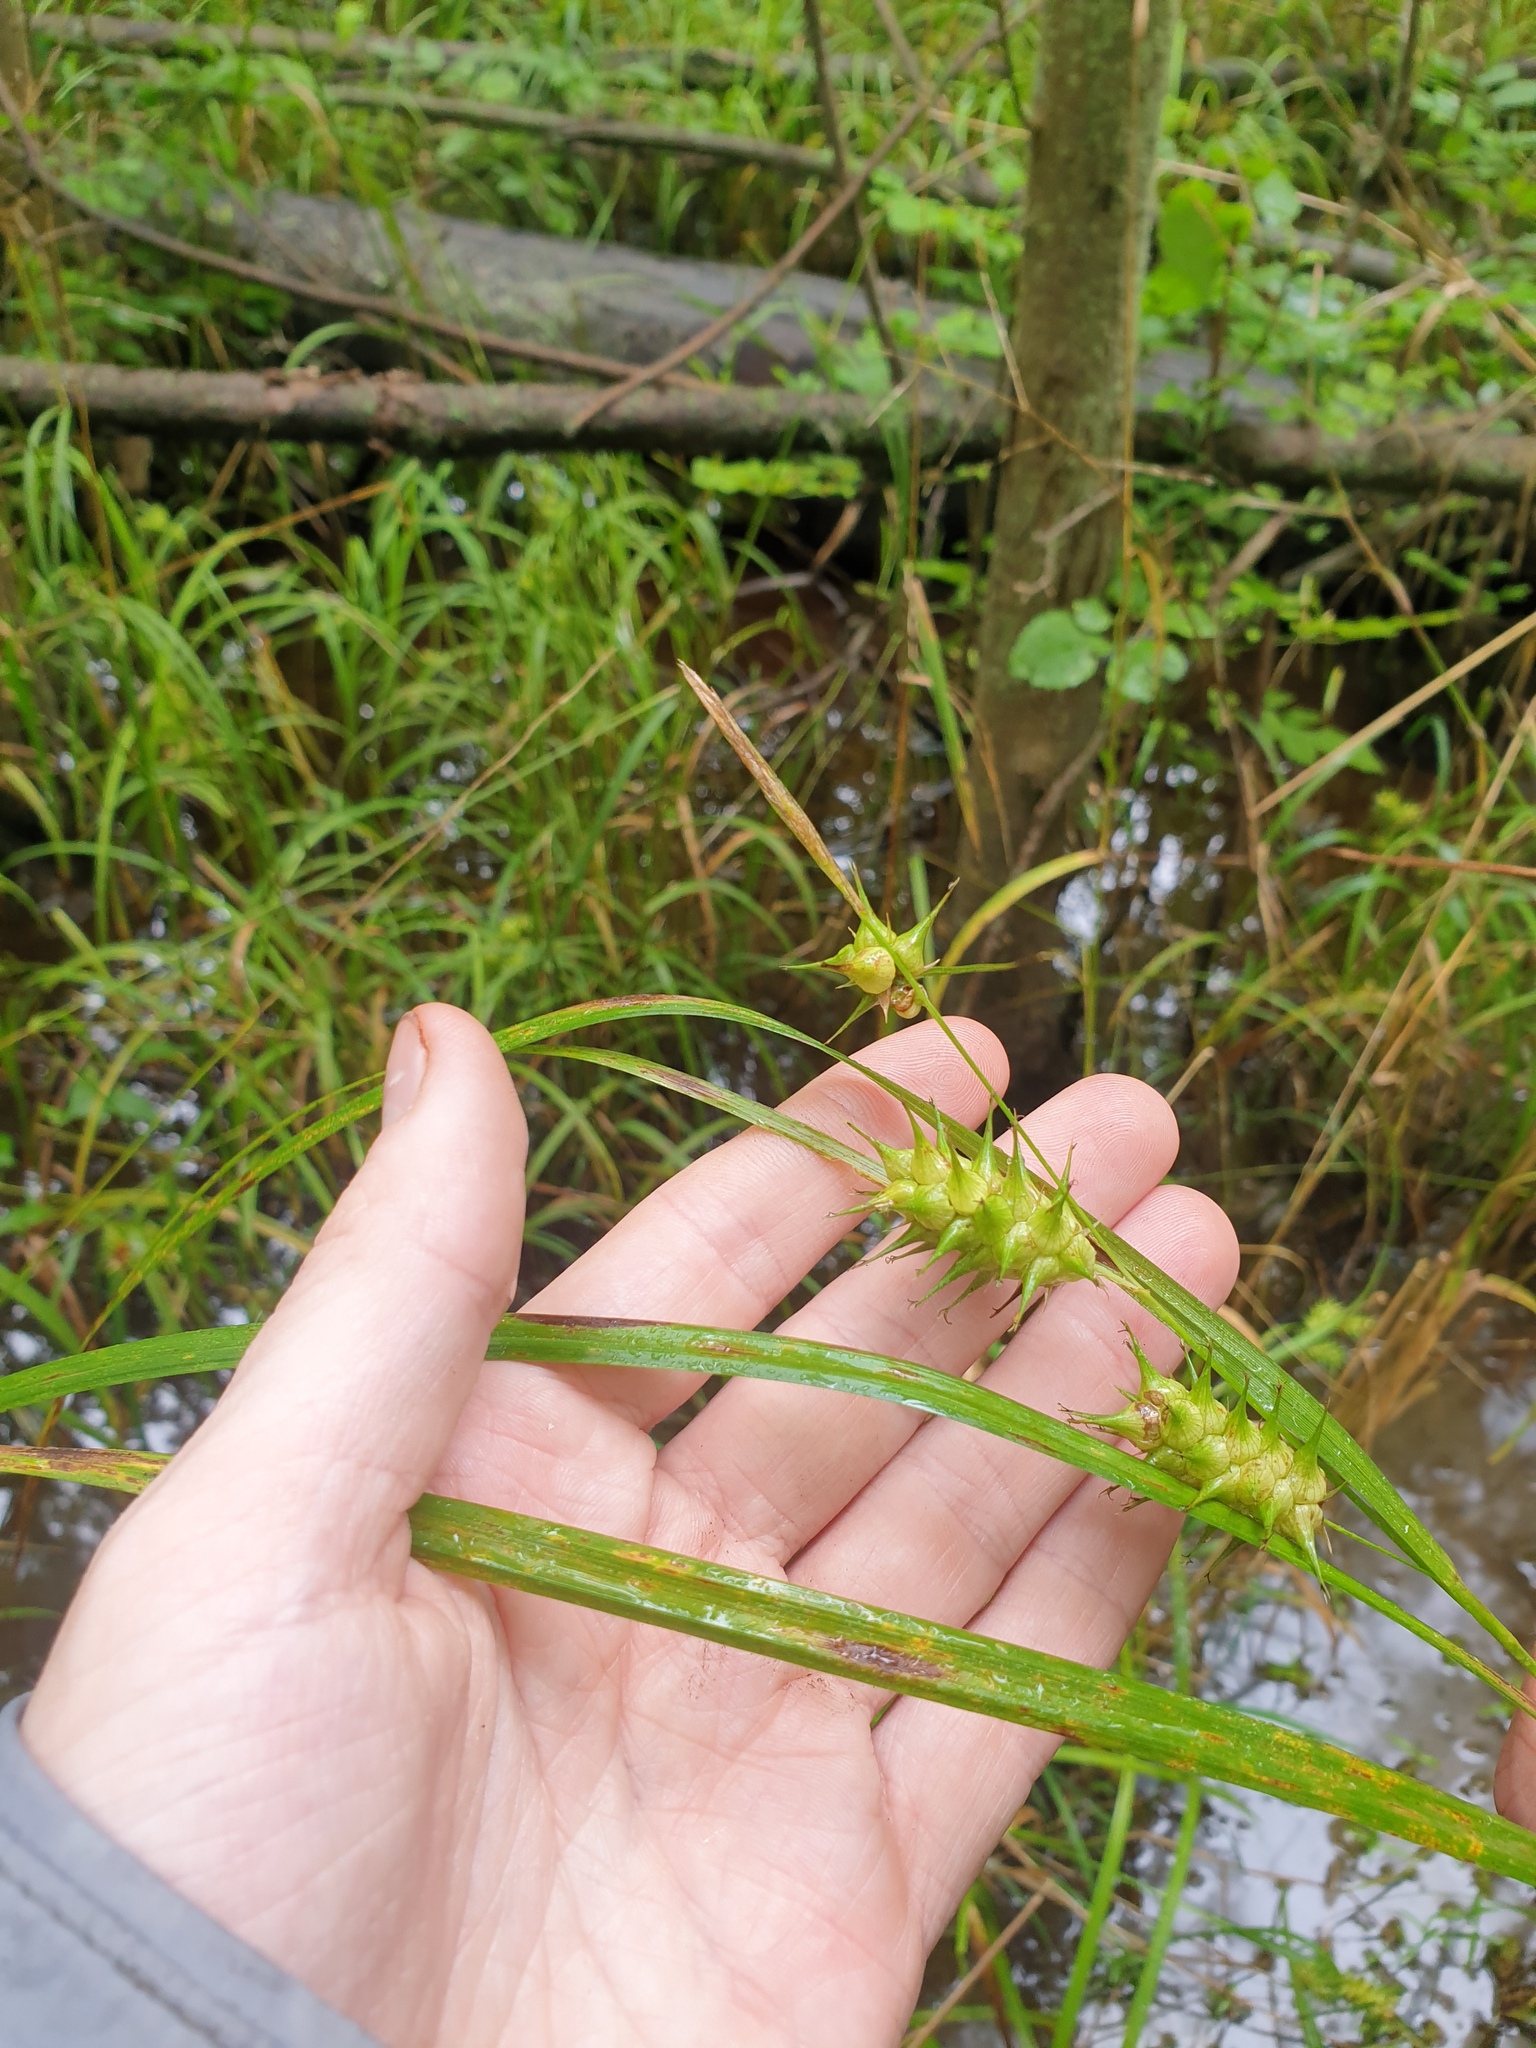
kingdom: Plantae
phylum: Tracheophyta
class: Liliopsida
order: Poales
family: Cyperaceae
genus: Carex
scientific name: Carex lupulina
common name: Hop sedge
